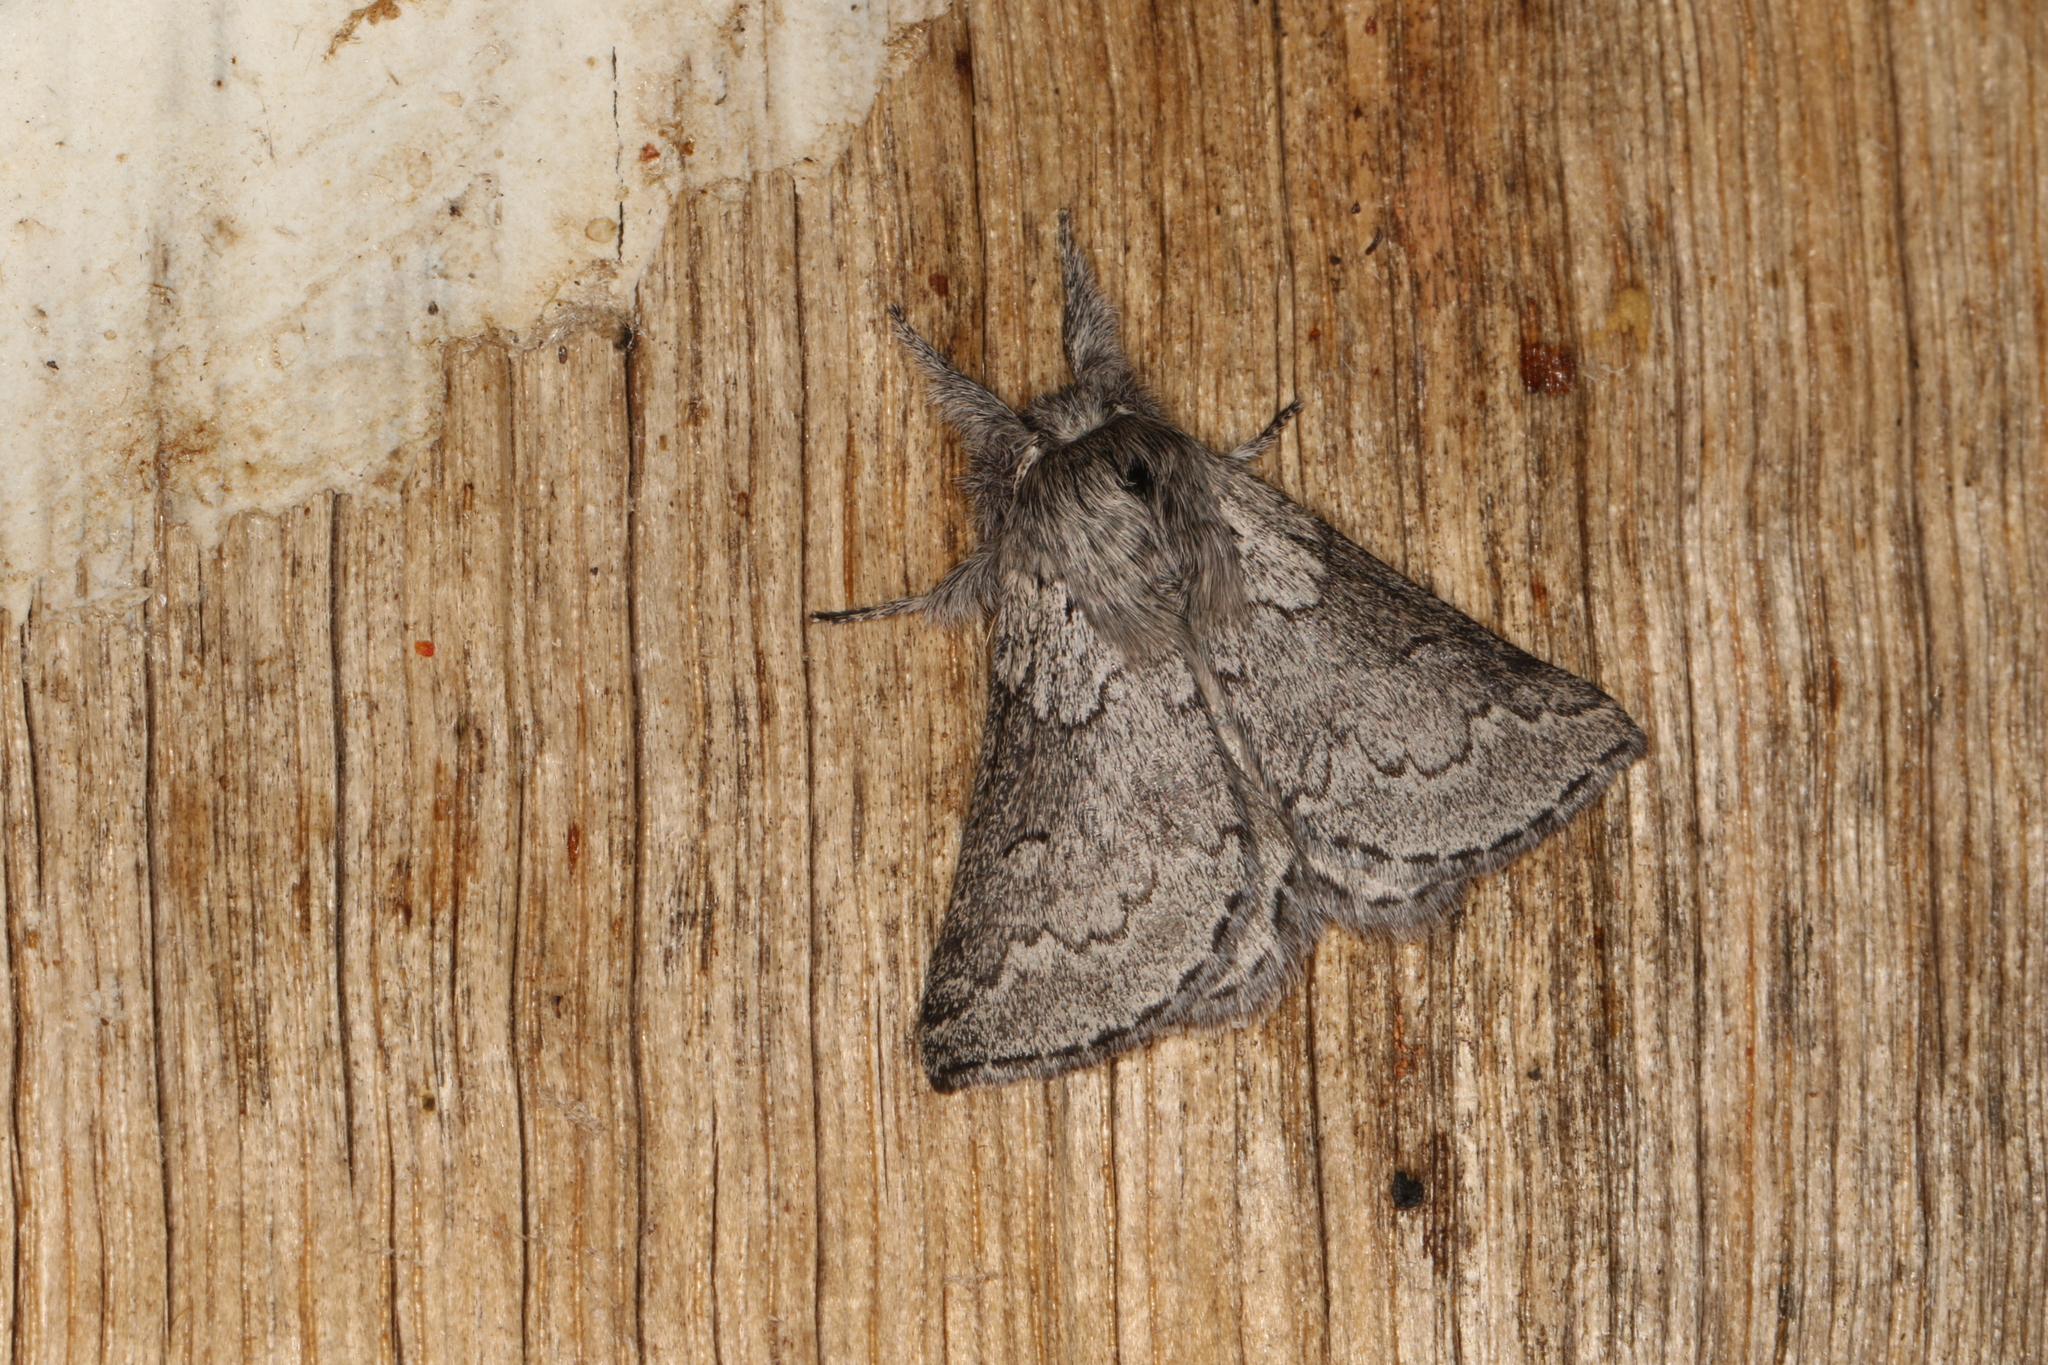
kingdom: Animalia
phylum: Arthropoda
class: Insecta
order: Lepidoptera
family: Anthelidae
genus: Munychryia
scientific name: Munychryia senicula
